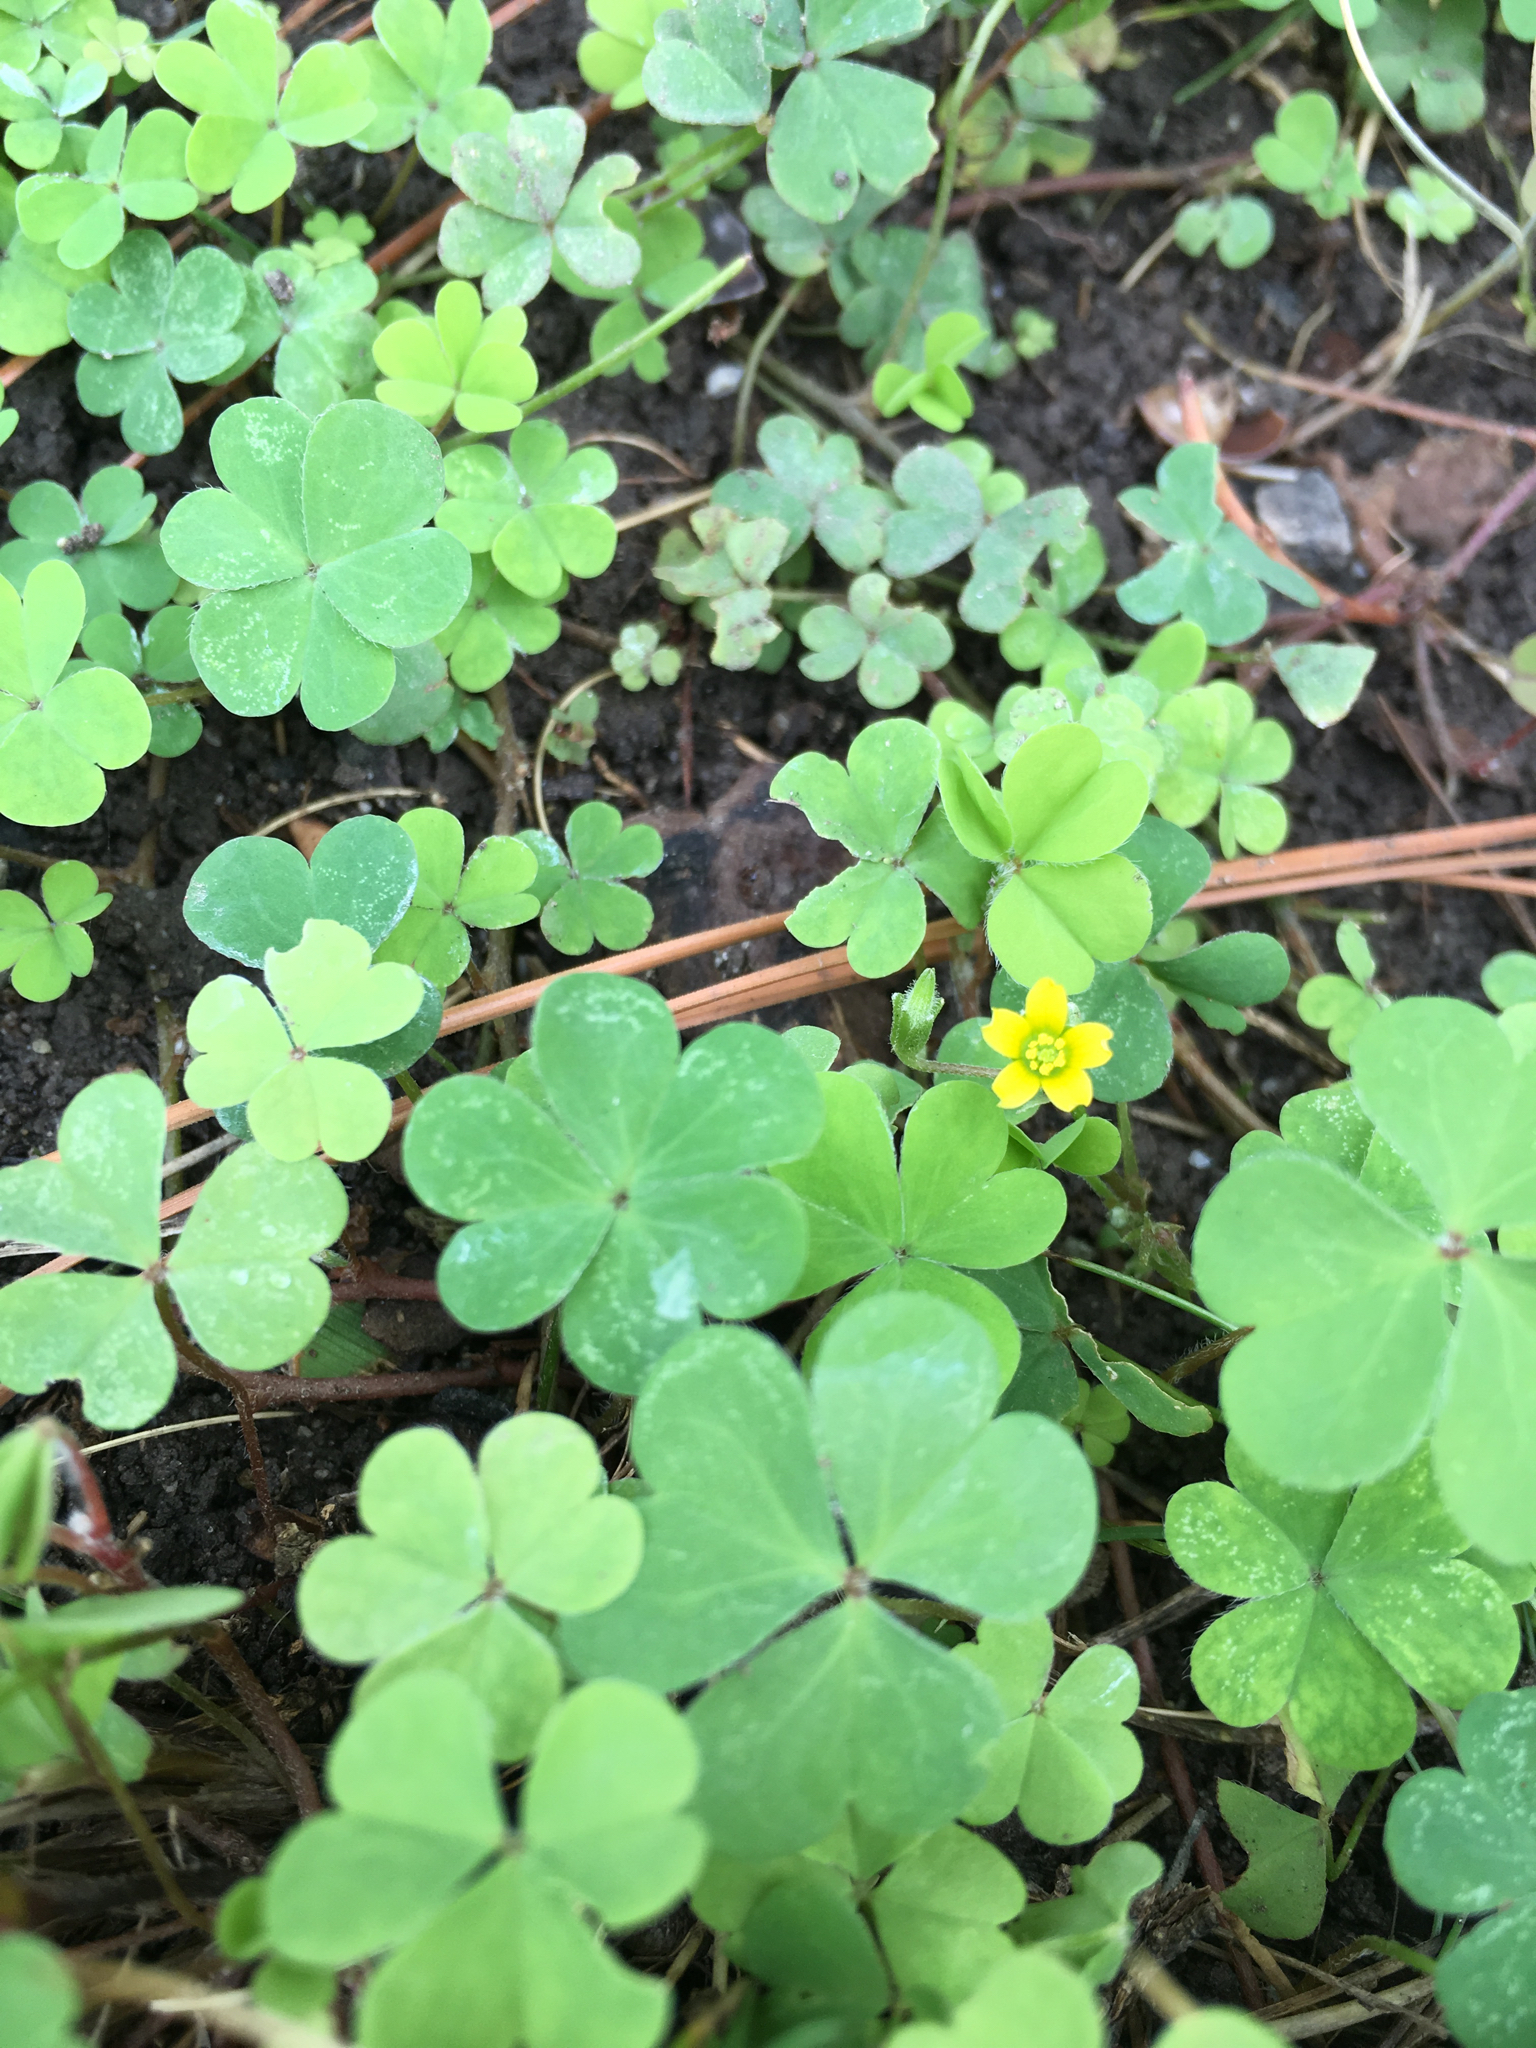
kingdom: Plantae
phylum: Tracheophyta
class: Magnoliopsida
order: Oxalidales
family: Oxalidaceae
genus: Oxalis
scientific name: Oxalis corniculata
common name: Procumbent yellow-sorrel
